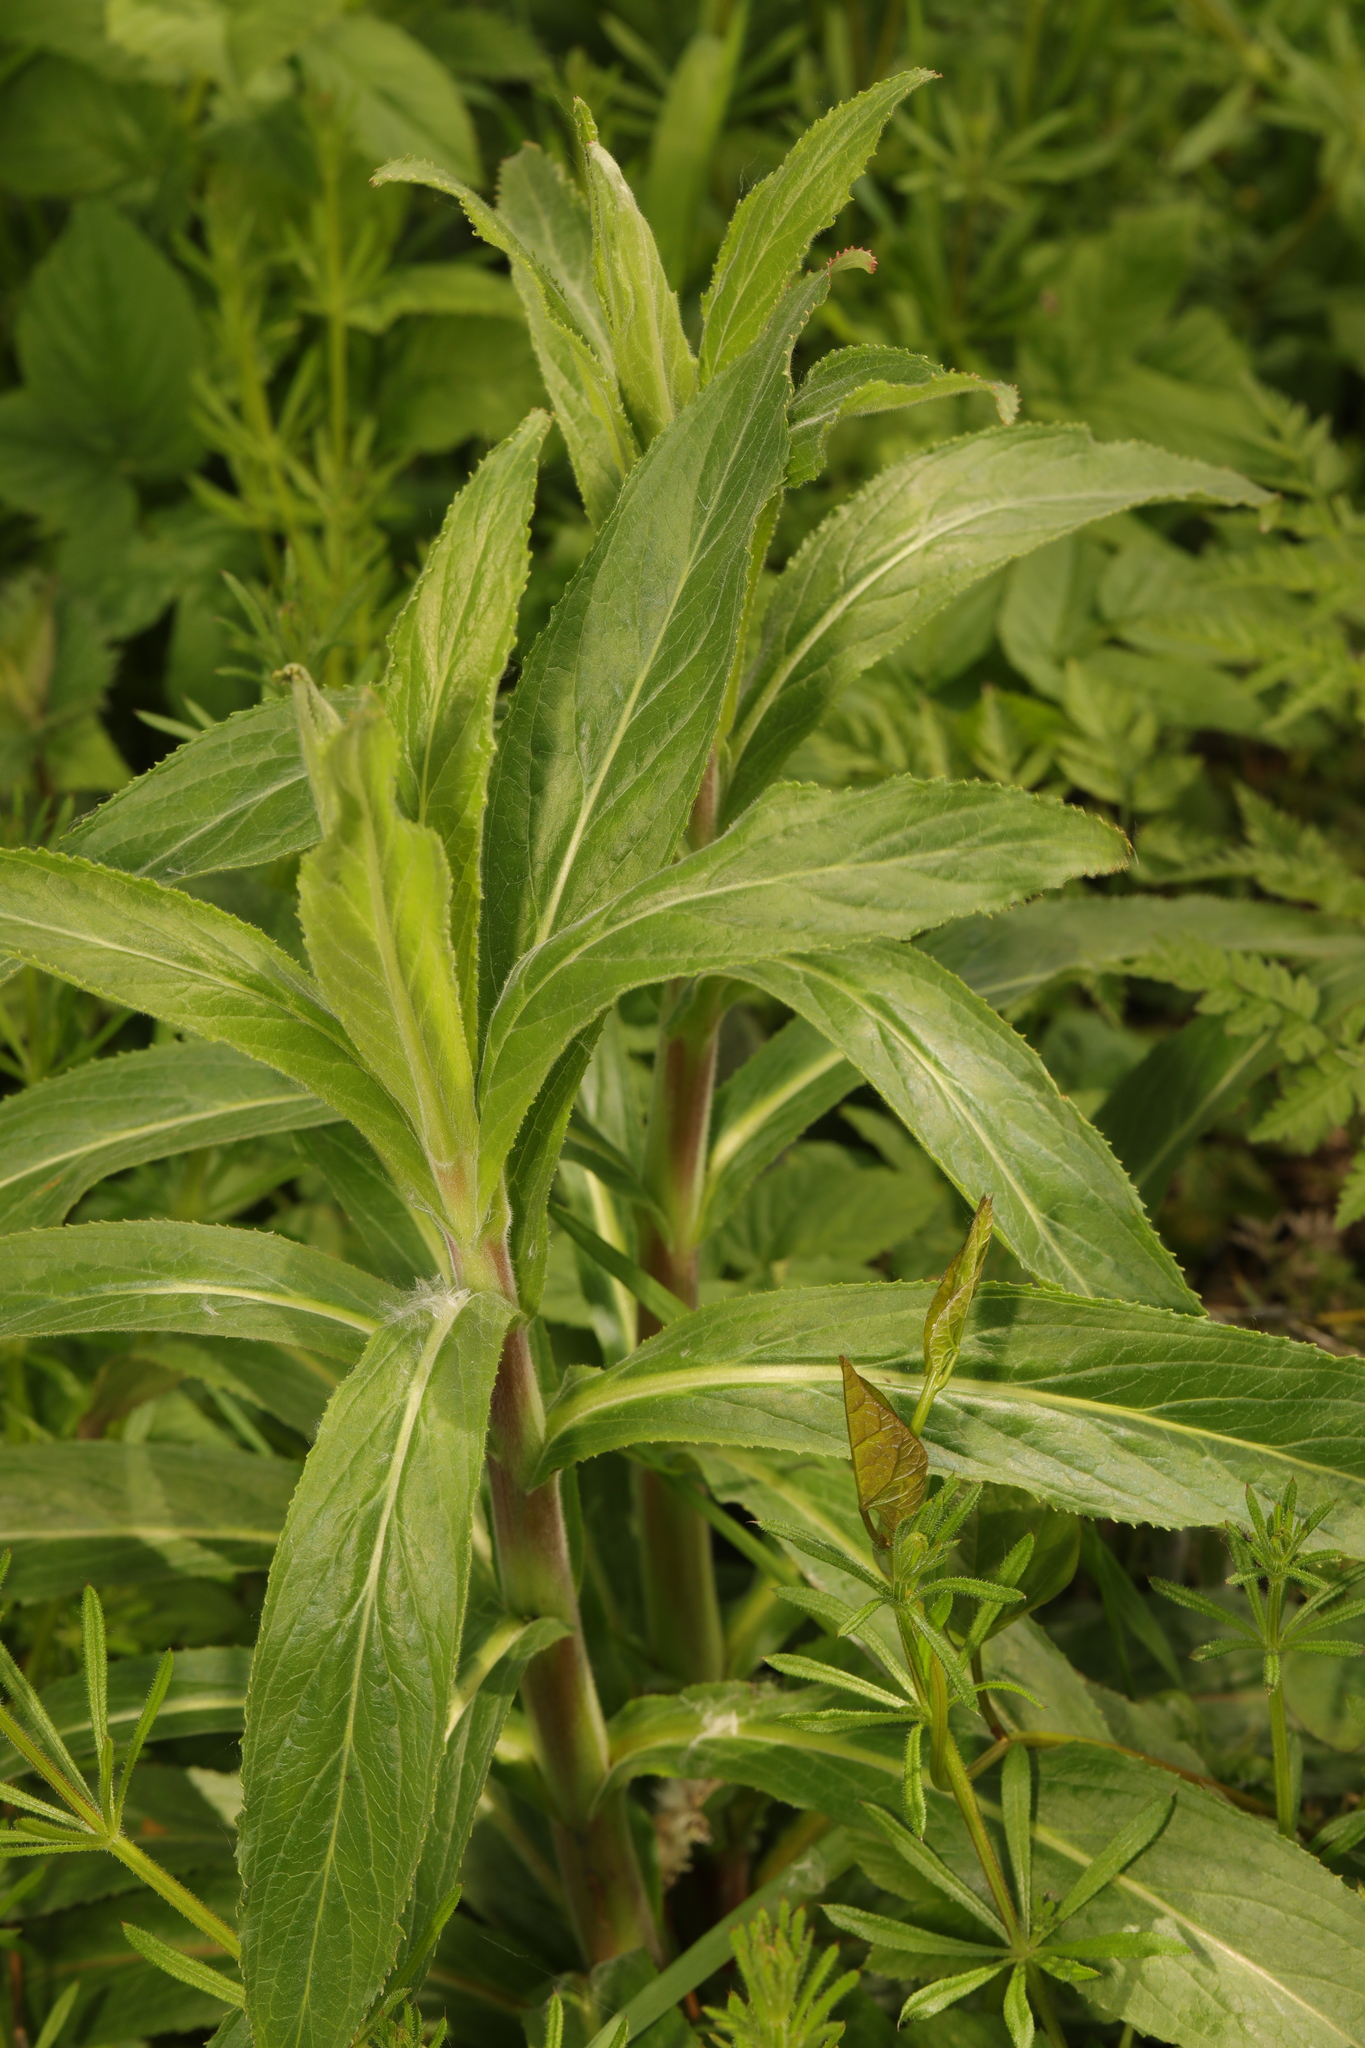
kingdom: Plantae
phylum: Tracheophyta
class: Magnoliopsida
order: Myrtales
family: Onagraceae
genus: Epilobium
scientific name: Epilobium hirsutum
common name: Great willowherb
